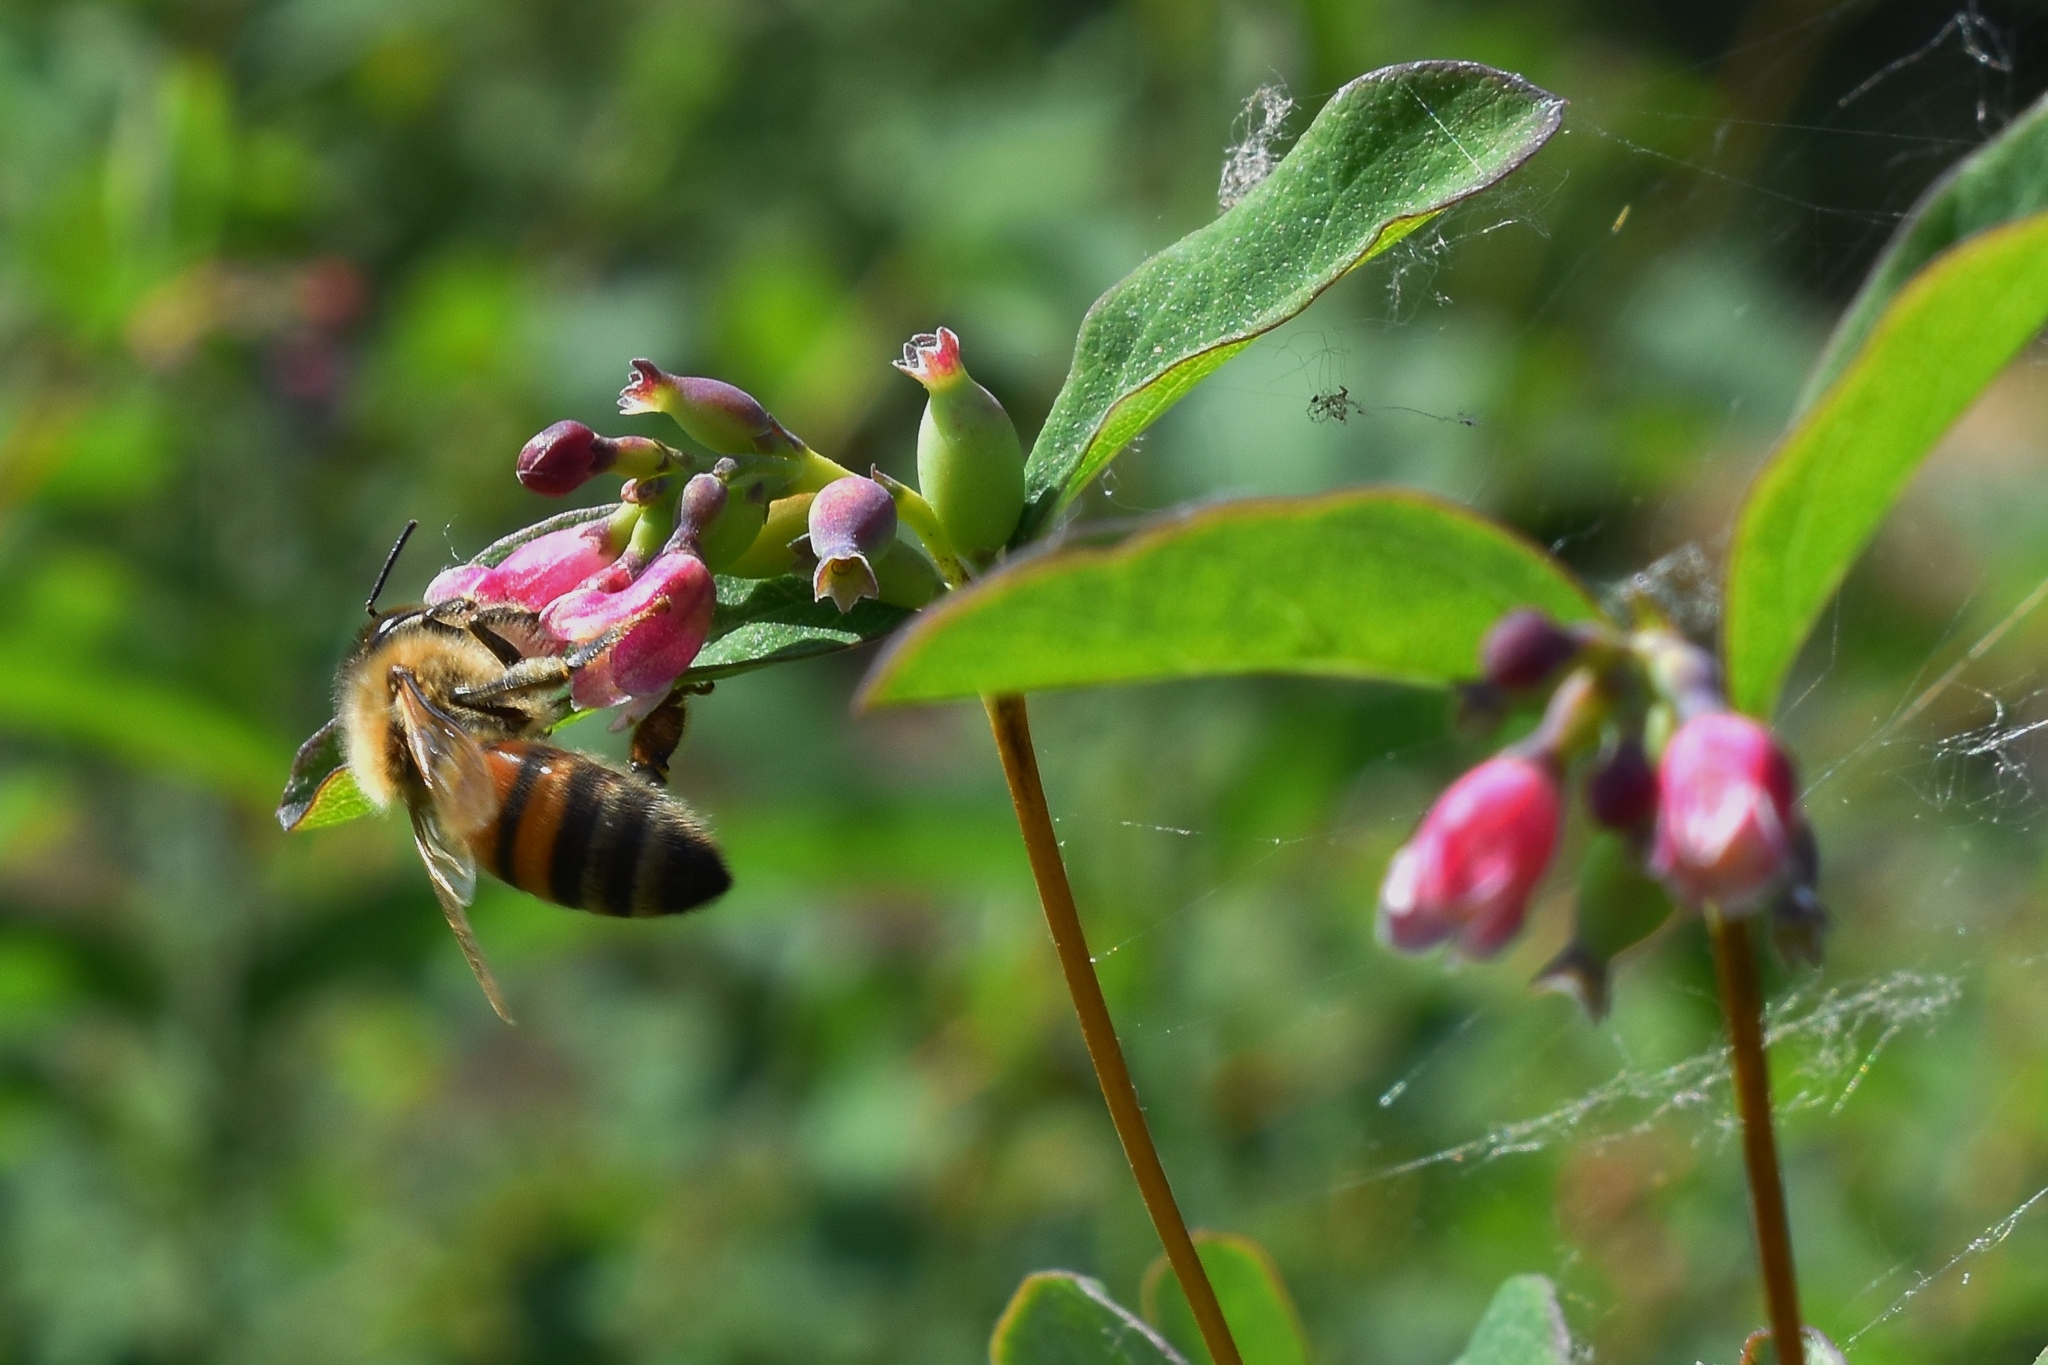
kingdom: Animalia
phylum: Arthropoda
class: Insecta
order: Hymenoptera
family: Apidae
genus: Apis
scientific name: Apis mellifera
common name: Honey bee
